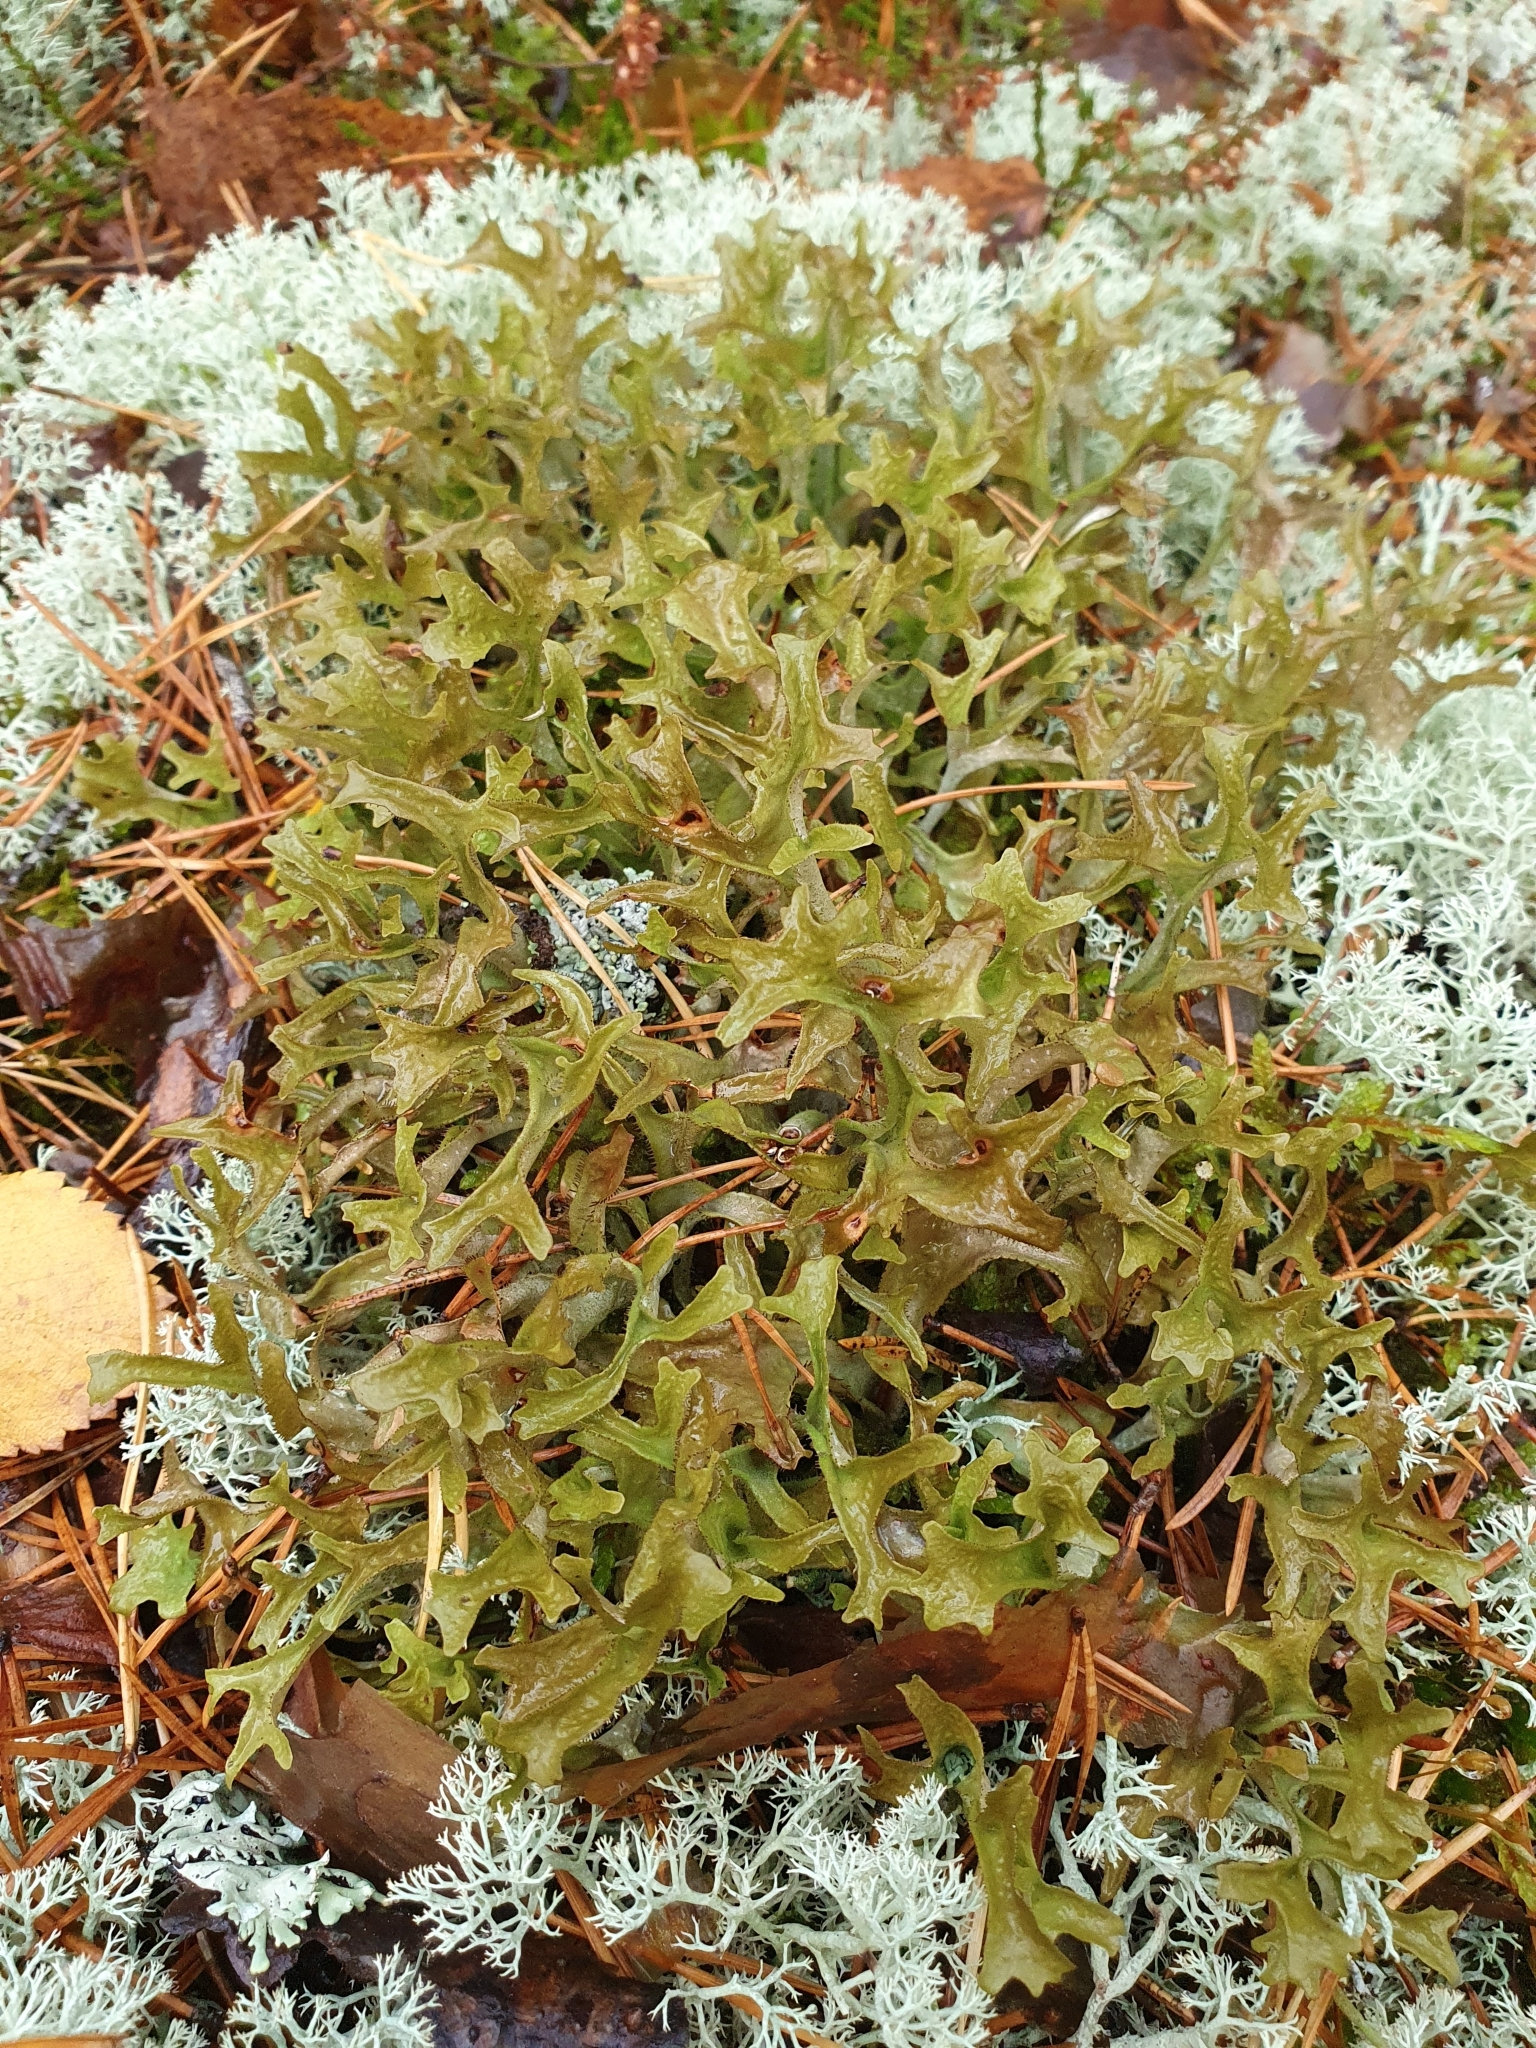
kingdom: Fungi
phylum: Ascomycota
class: Lecanoromycetes
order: Lecanorales
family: Parmeliaceae
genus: Cetraria
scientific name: Cetraria islandica
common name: Iceland lichen
